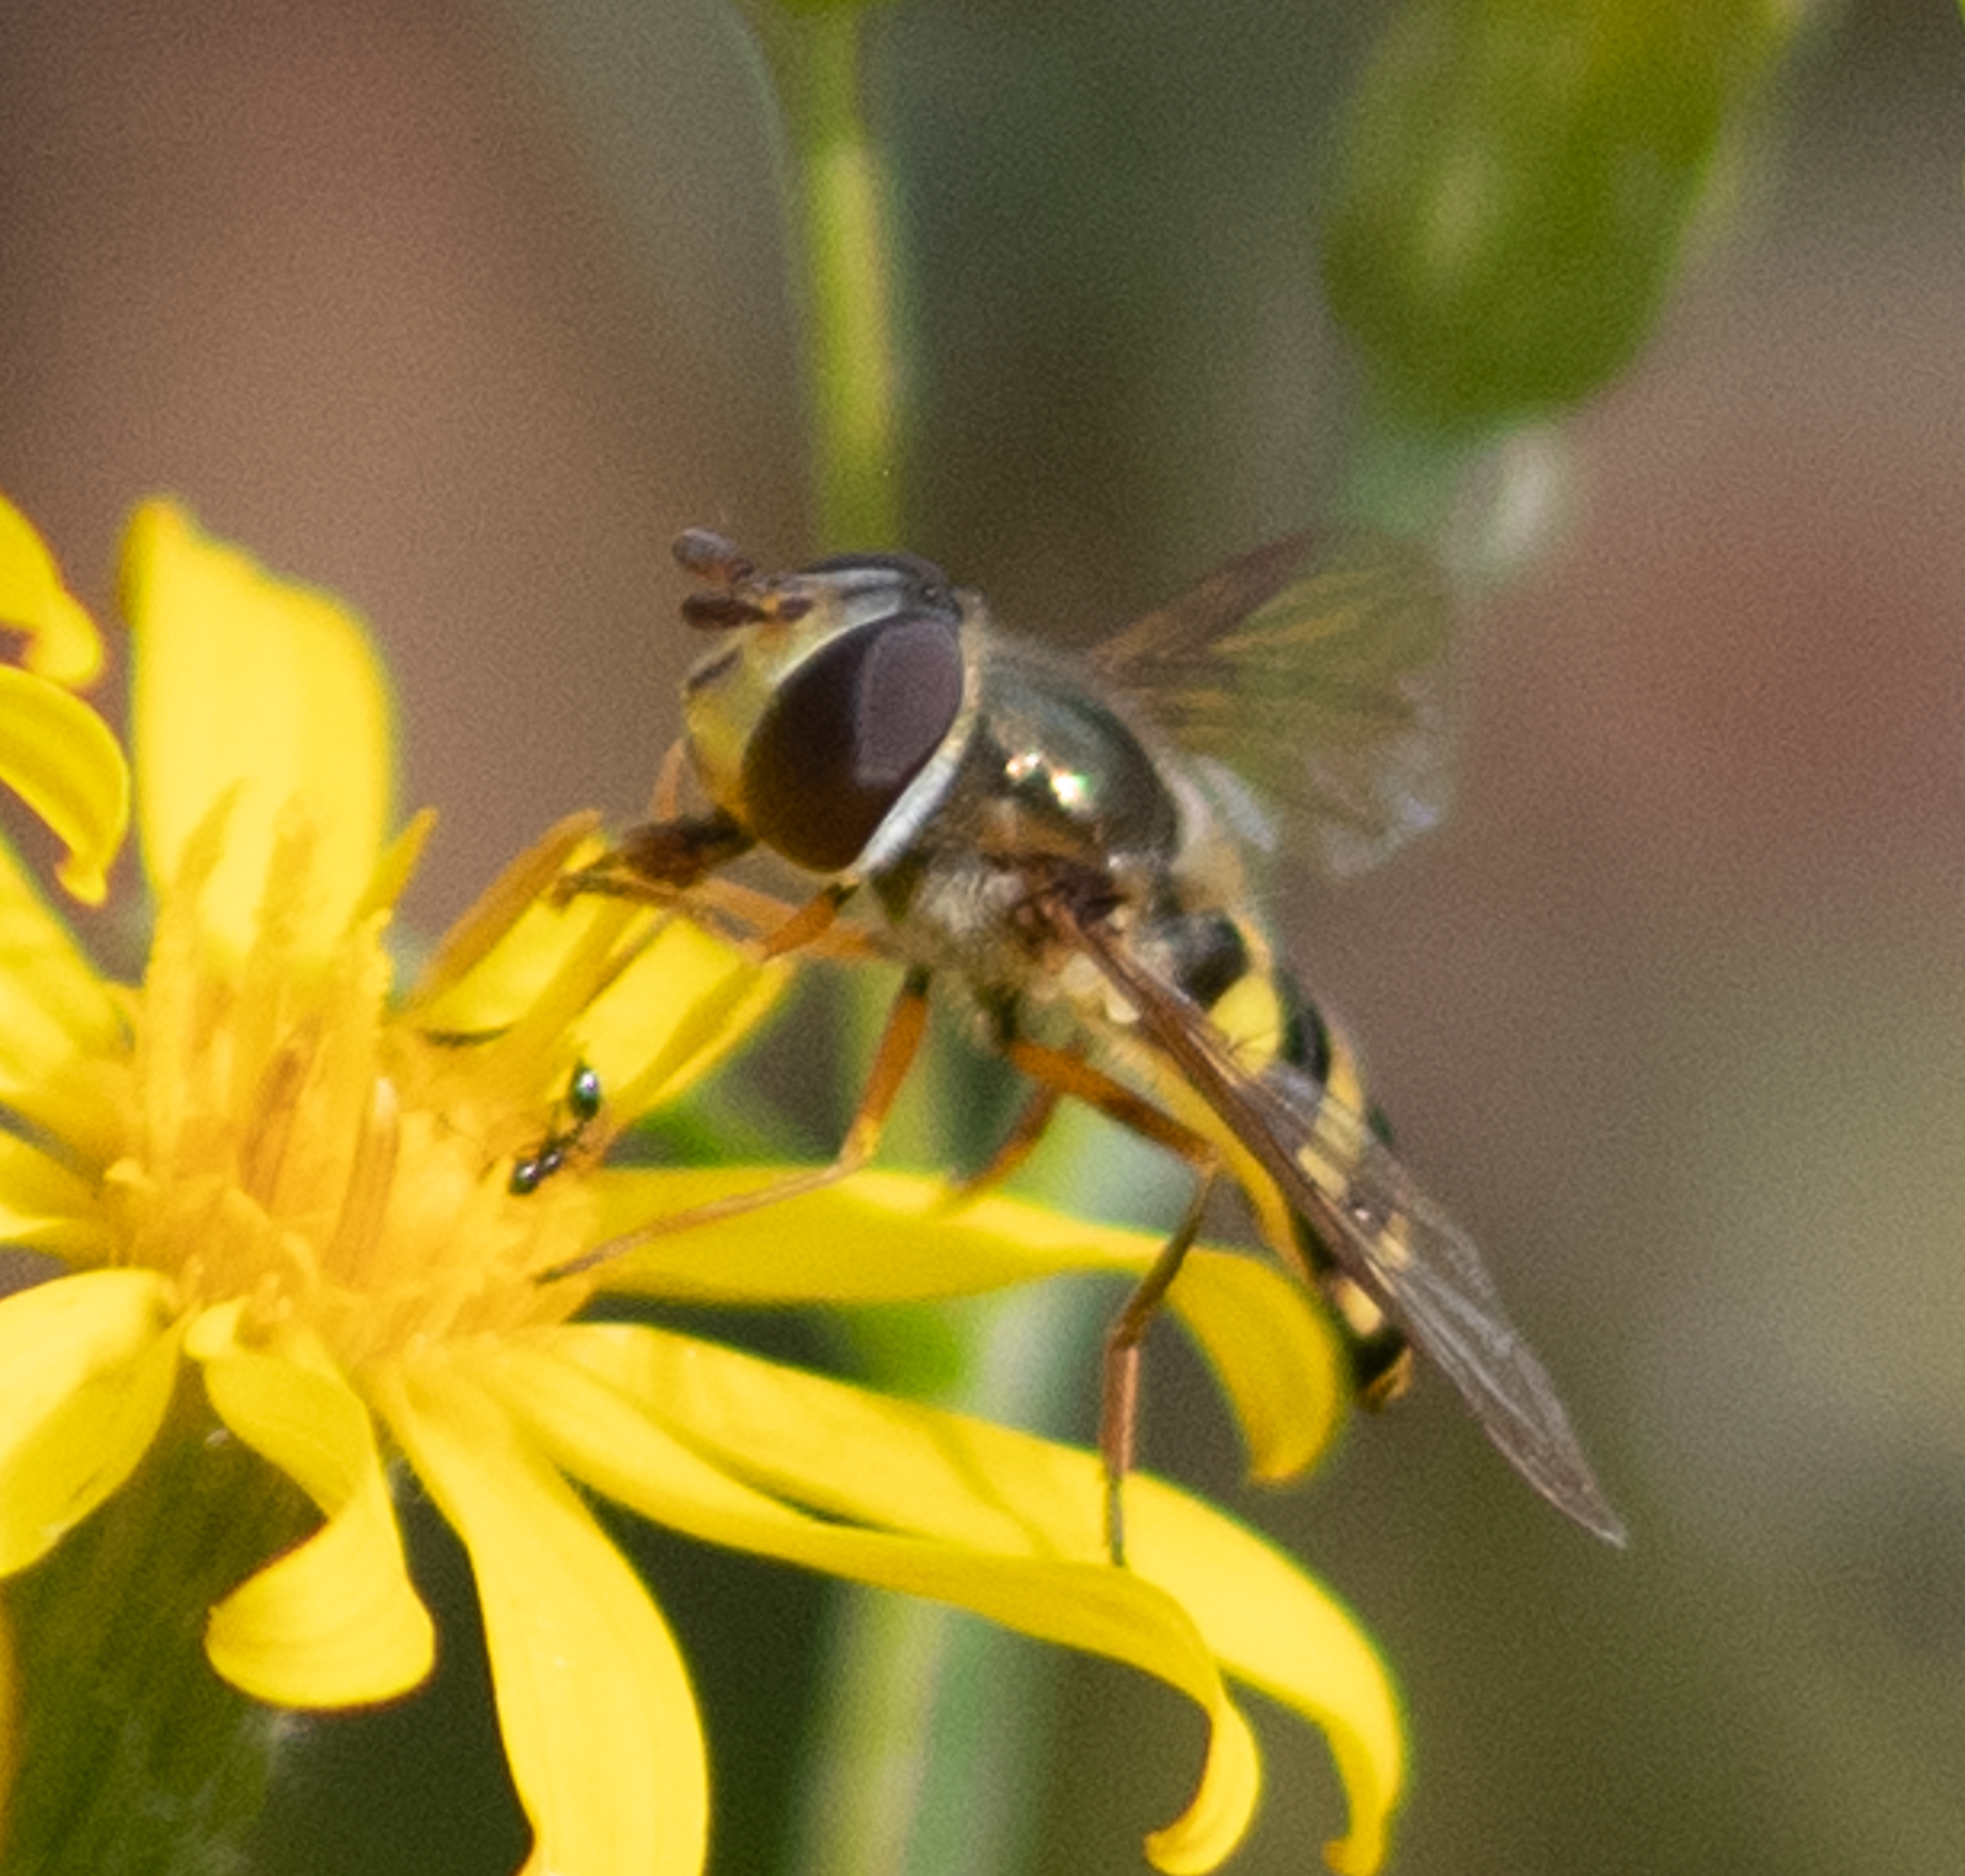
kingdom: Animalia
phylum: Arthropoda
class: Insecta
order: Diptera
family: Syrphidae
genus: Eupeodes
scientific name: Eupeodes
